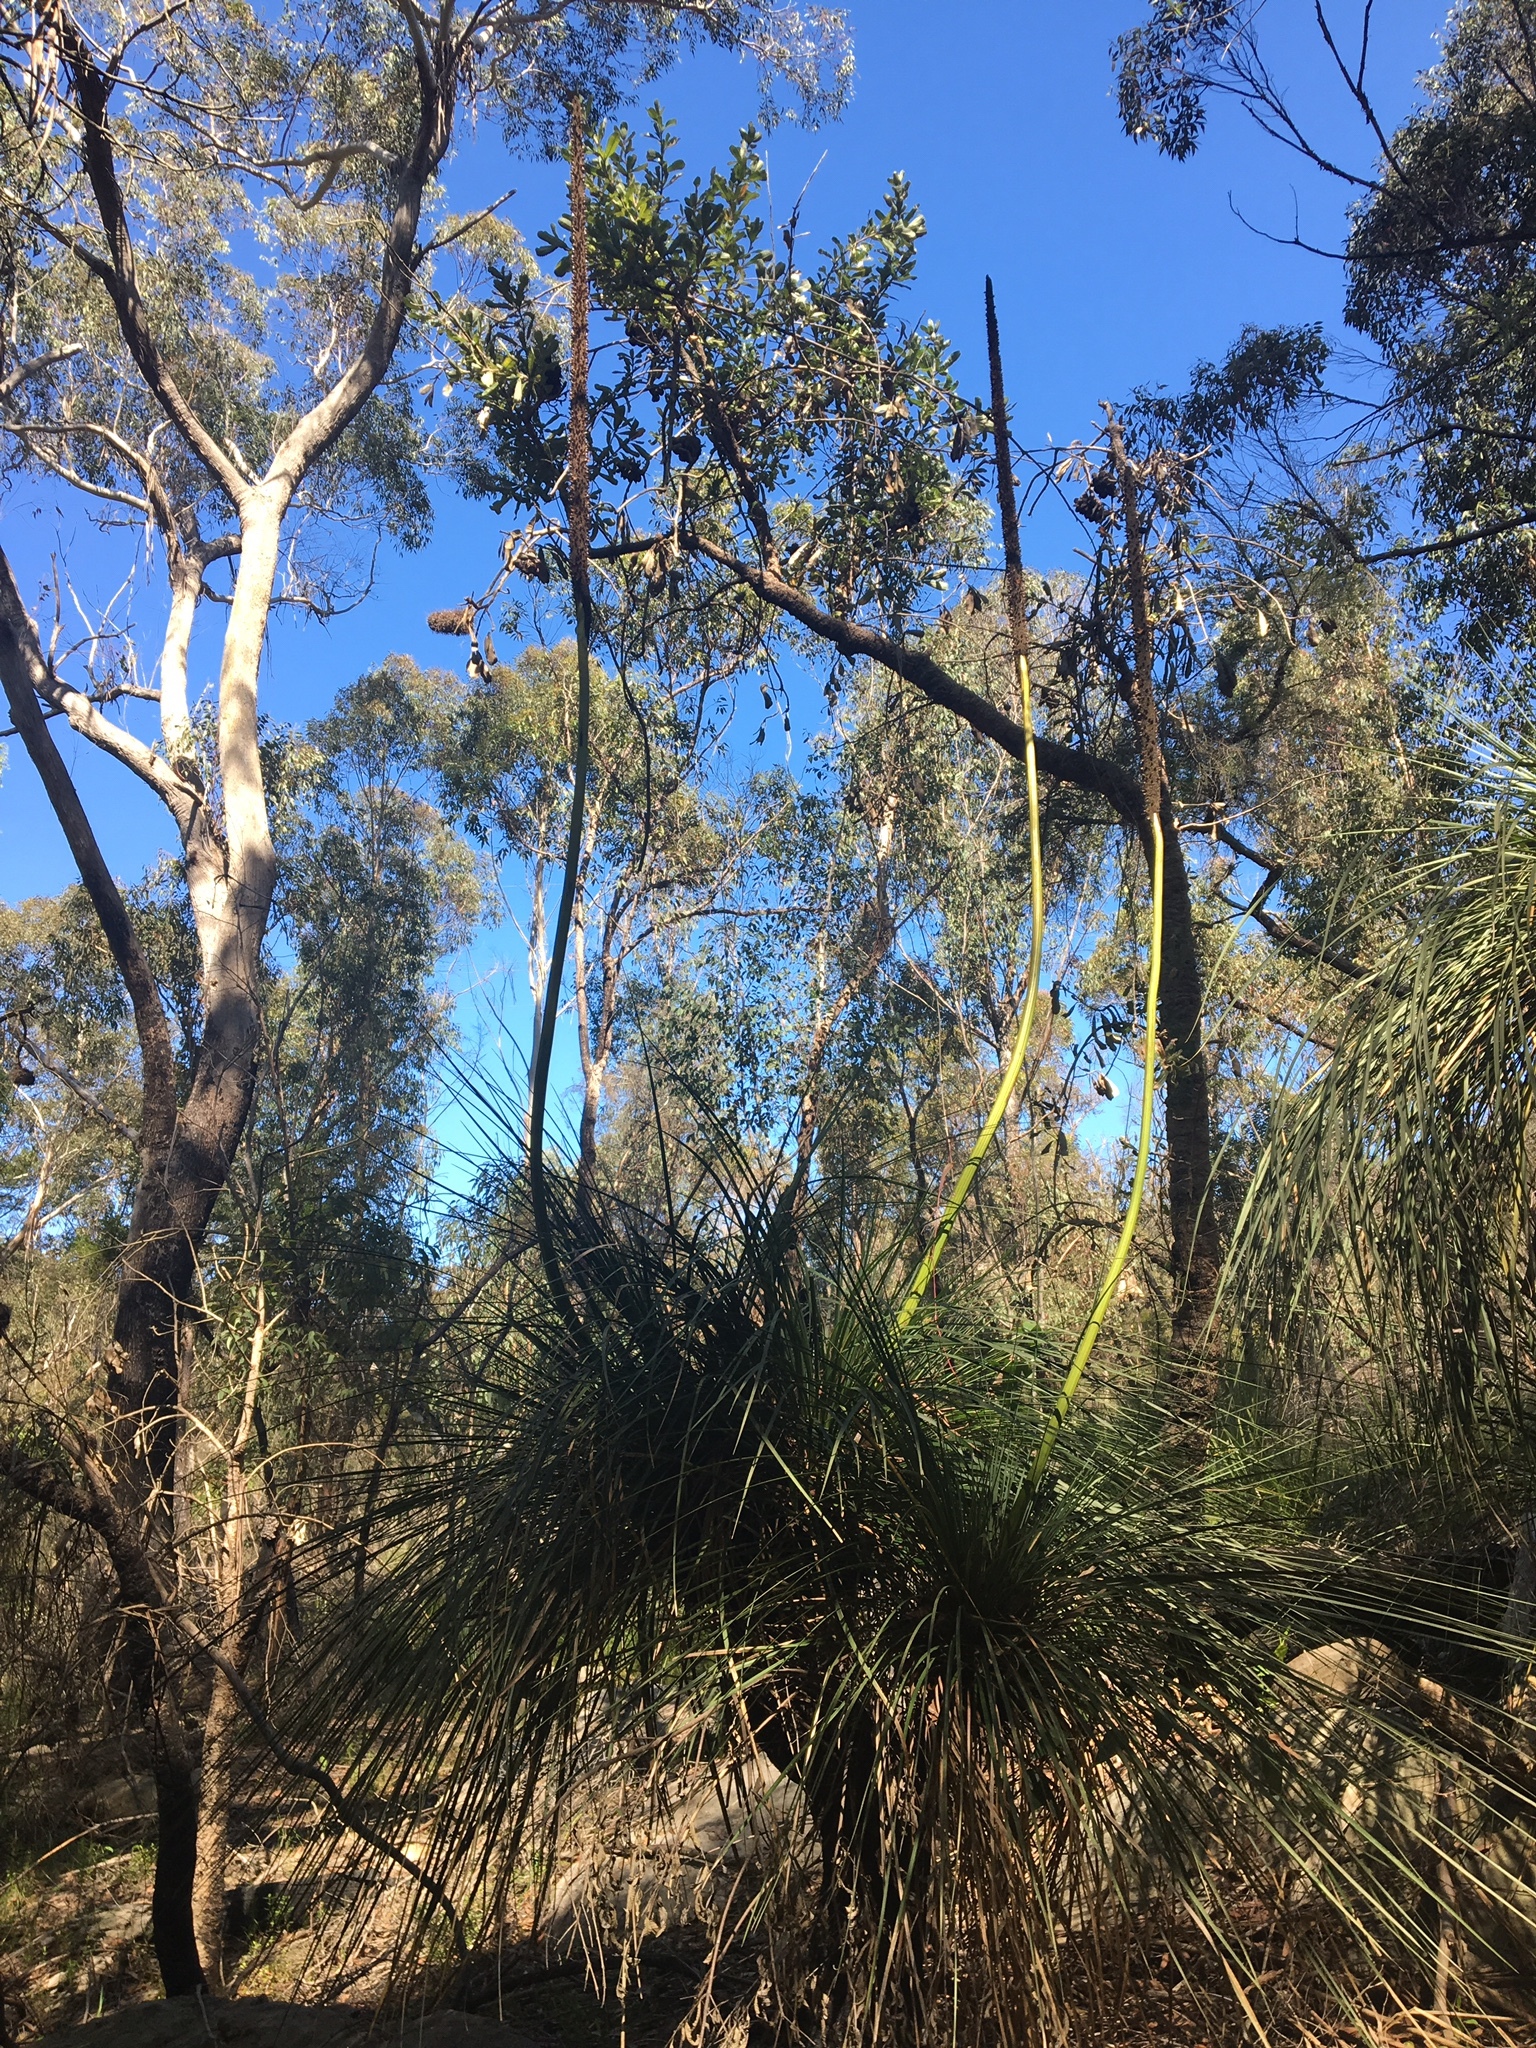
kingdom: Plantae
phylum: Tracheophyta
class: Liliopsida
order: Asparagales
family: Asphodelaceae
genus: Xanthorrhoea
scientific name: Xanthorrhoea arborea
